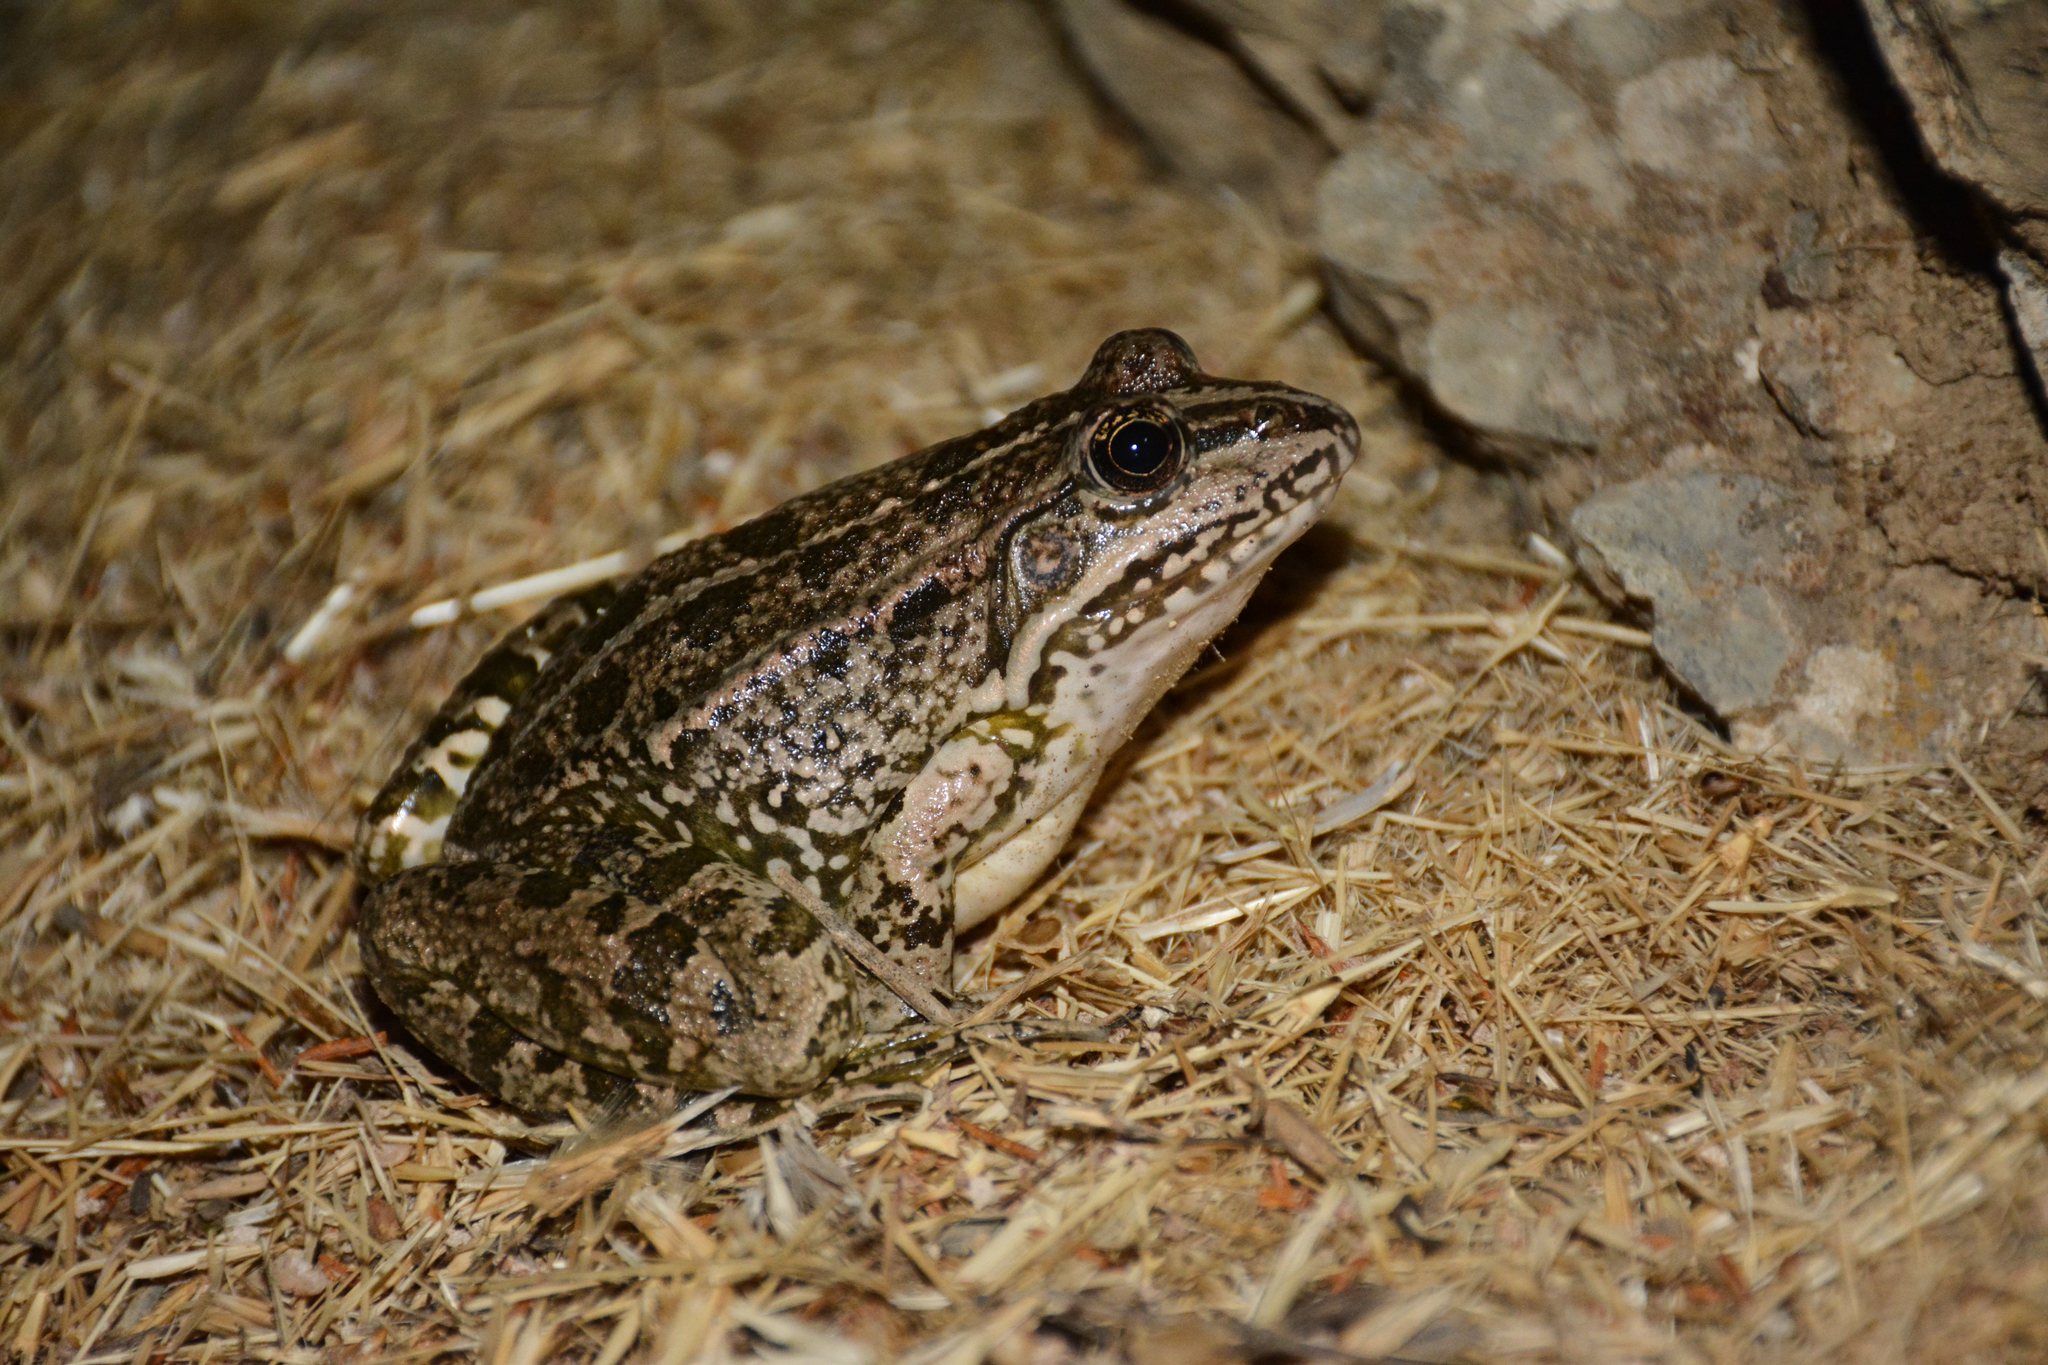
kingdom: Animalia
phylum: Chordata
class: Amphibia
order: Anura
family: Ranidae
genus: Pelophylax
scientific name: Pelophylax ridibundus
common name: Marsh frog
